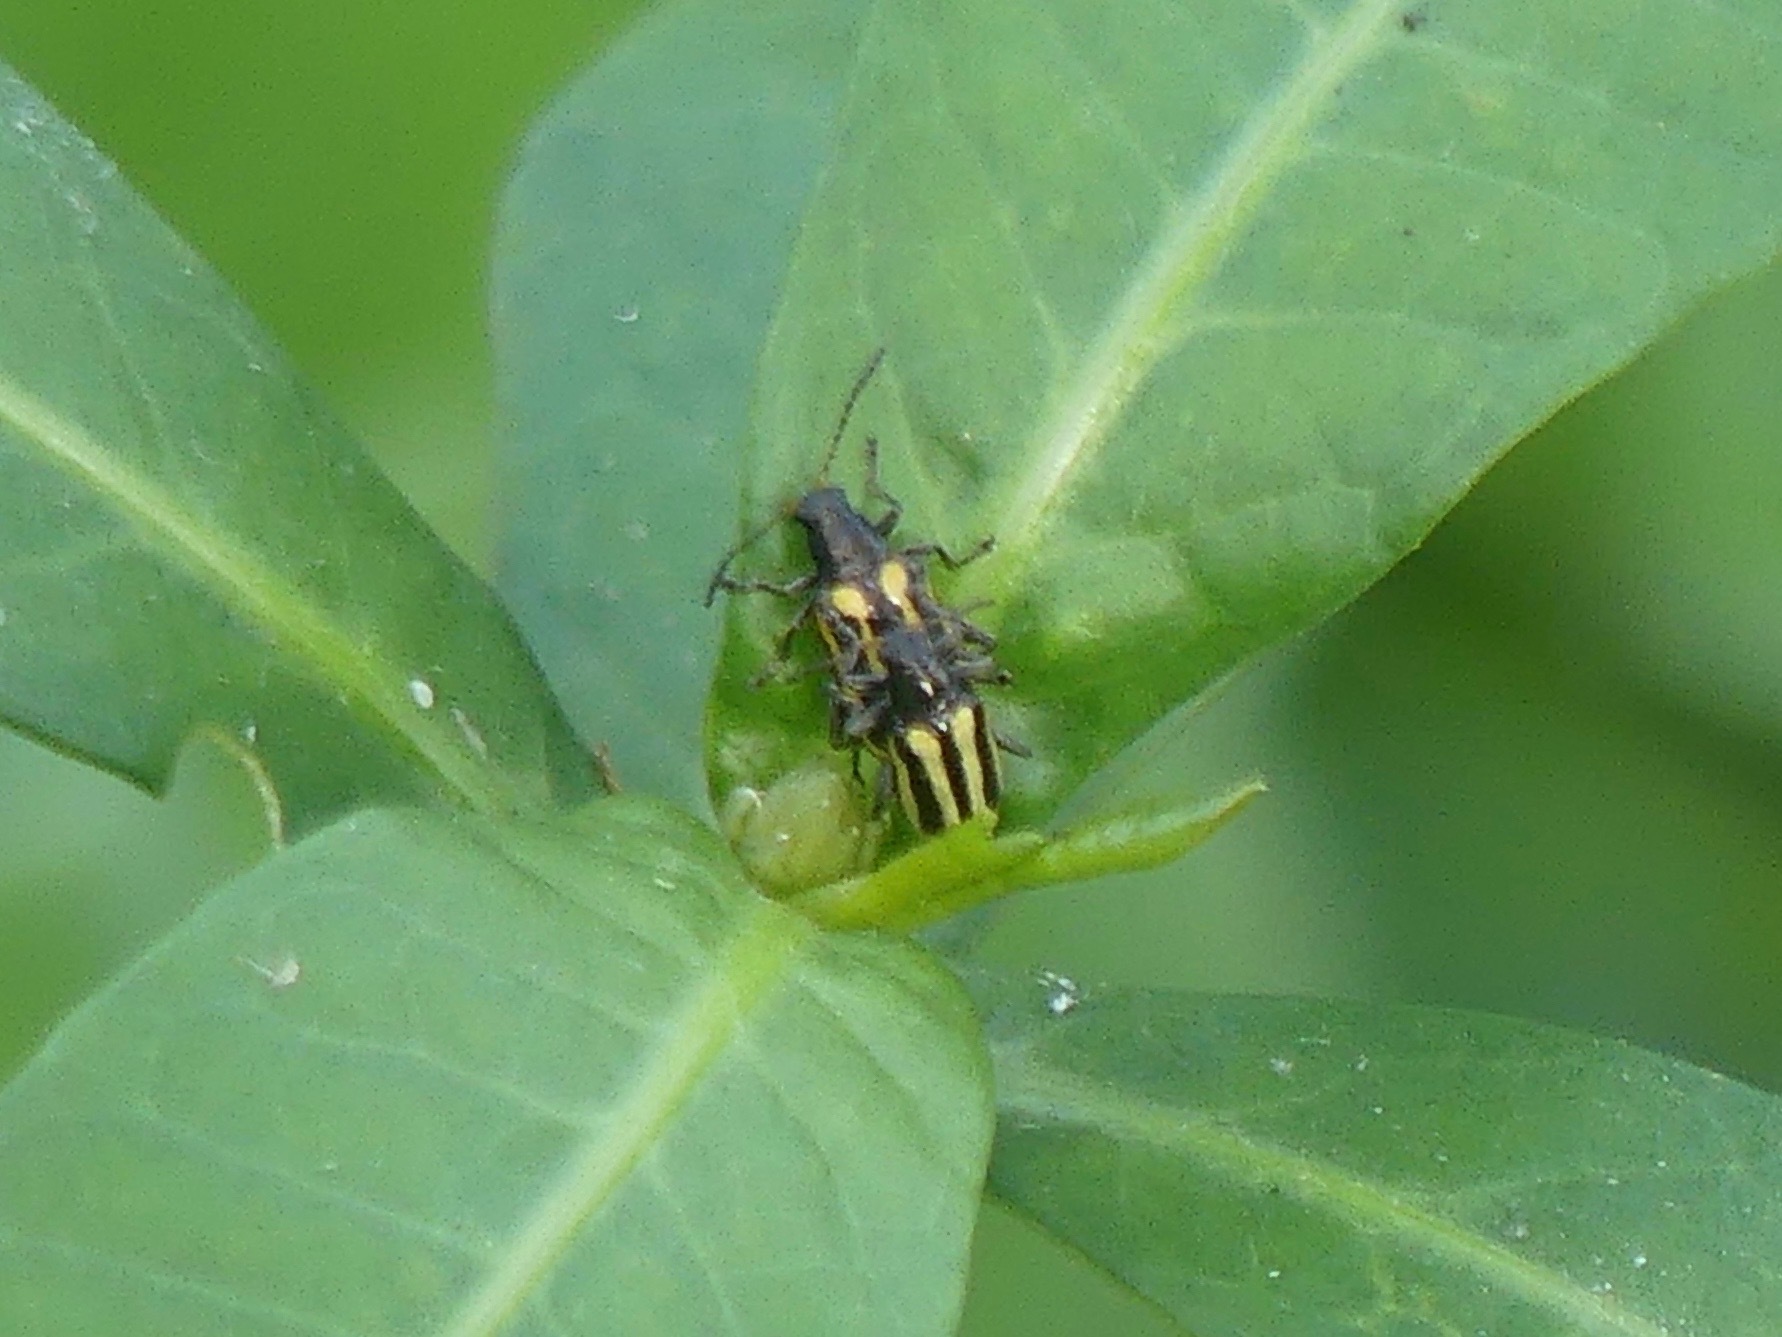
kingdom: Animalia
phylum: Arthropoda
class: Insecta
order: Coleoptera
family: Chrysomelidae
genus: Agasicles
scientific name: Agasicles hygrophila
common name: Alligatorweed flea beetle
